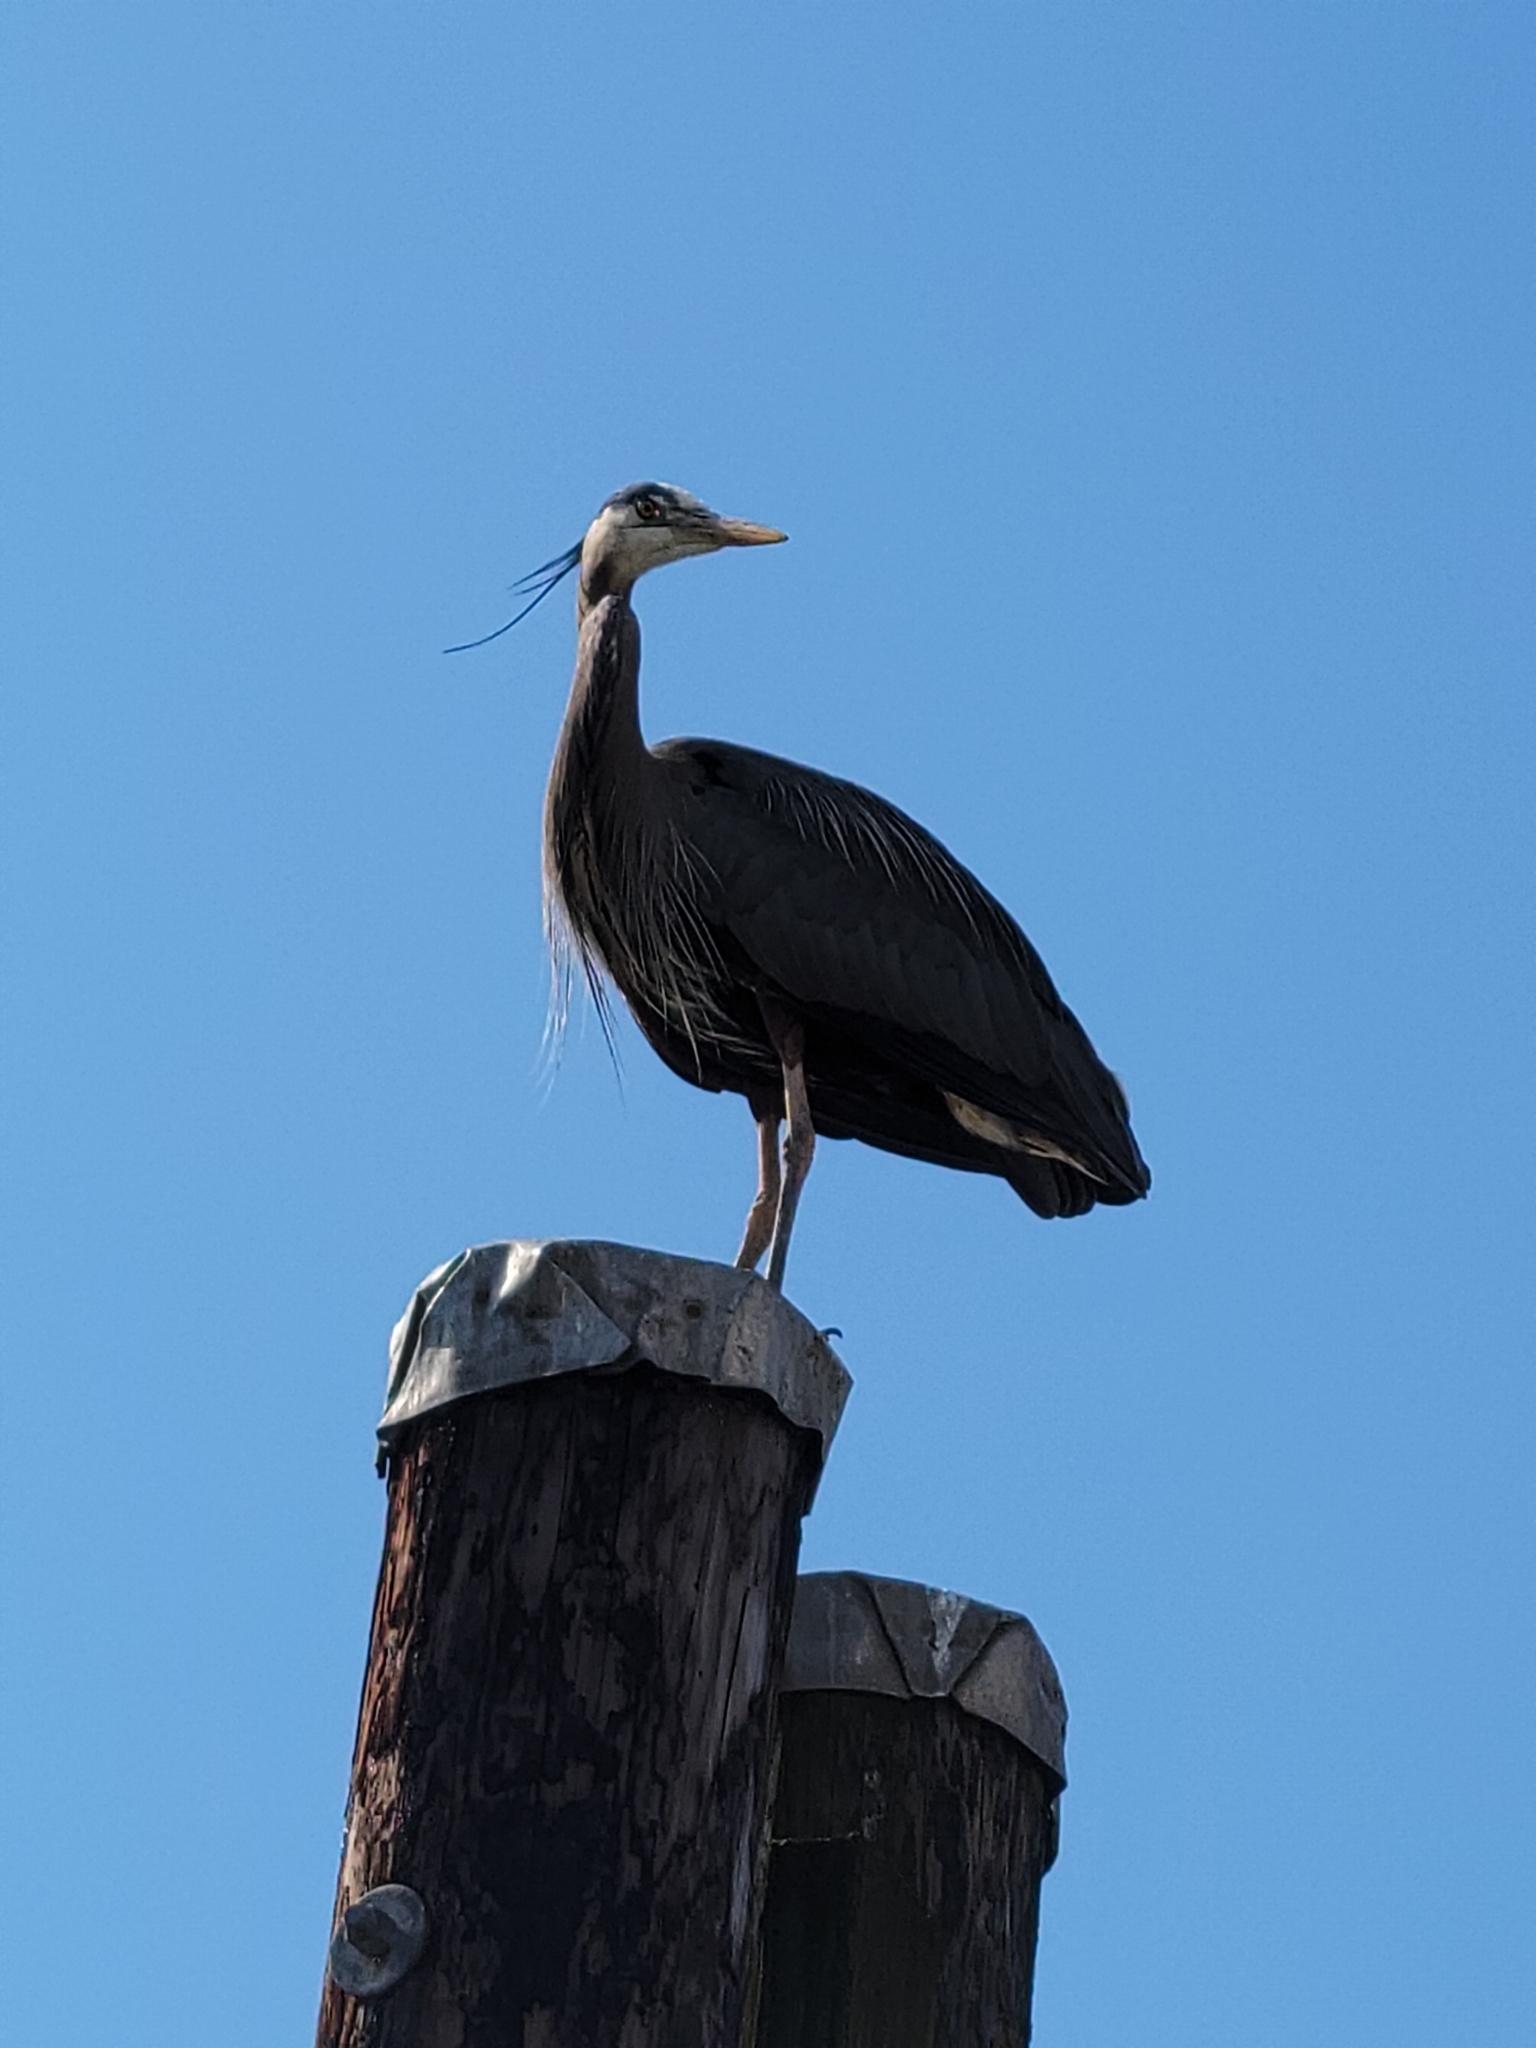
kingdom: Animalia
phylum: Chordata
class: Aves
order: Pelecaniformes
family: Ardeidae
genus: Ardea
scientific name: Ardea herodias
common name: Great blue heron
